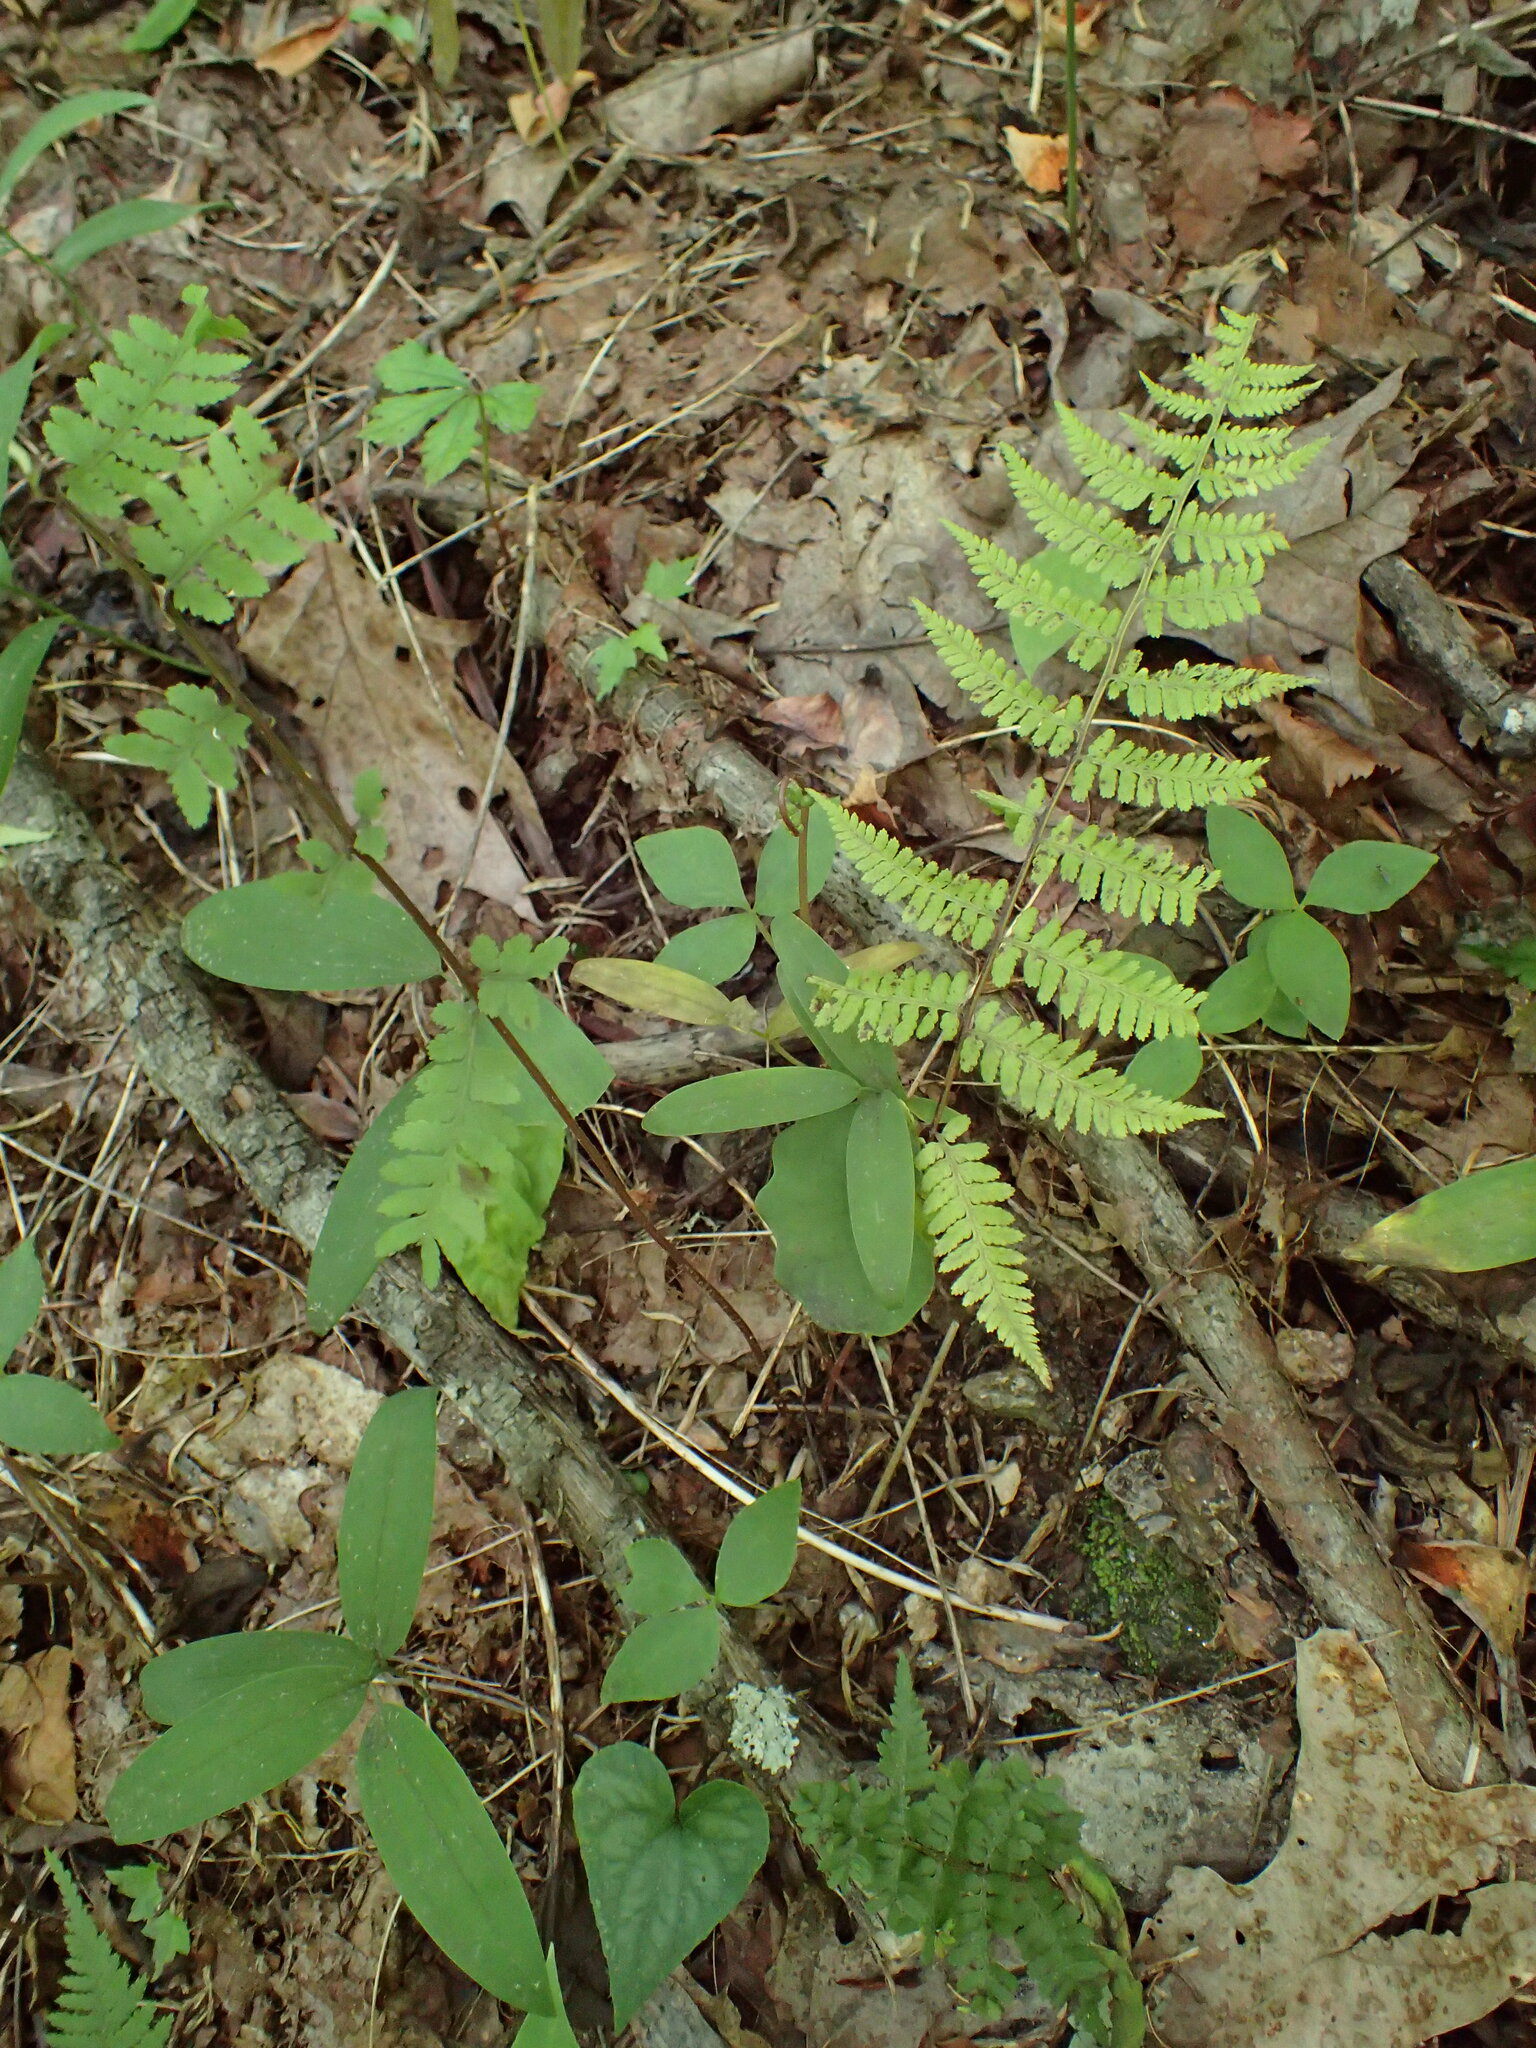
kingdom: Plantae
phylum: Tracheophyta
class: Polypodiopsida
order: Polypodiales
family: Athyriaceae
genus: Athyrium
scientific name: Athyrium asplenioides
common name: Southern lady fern
